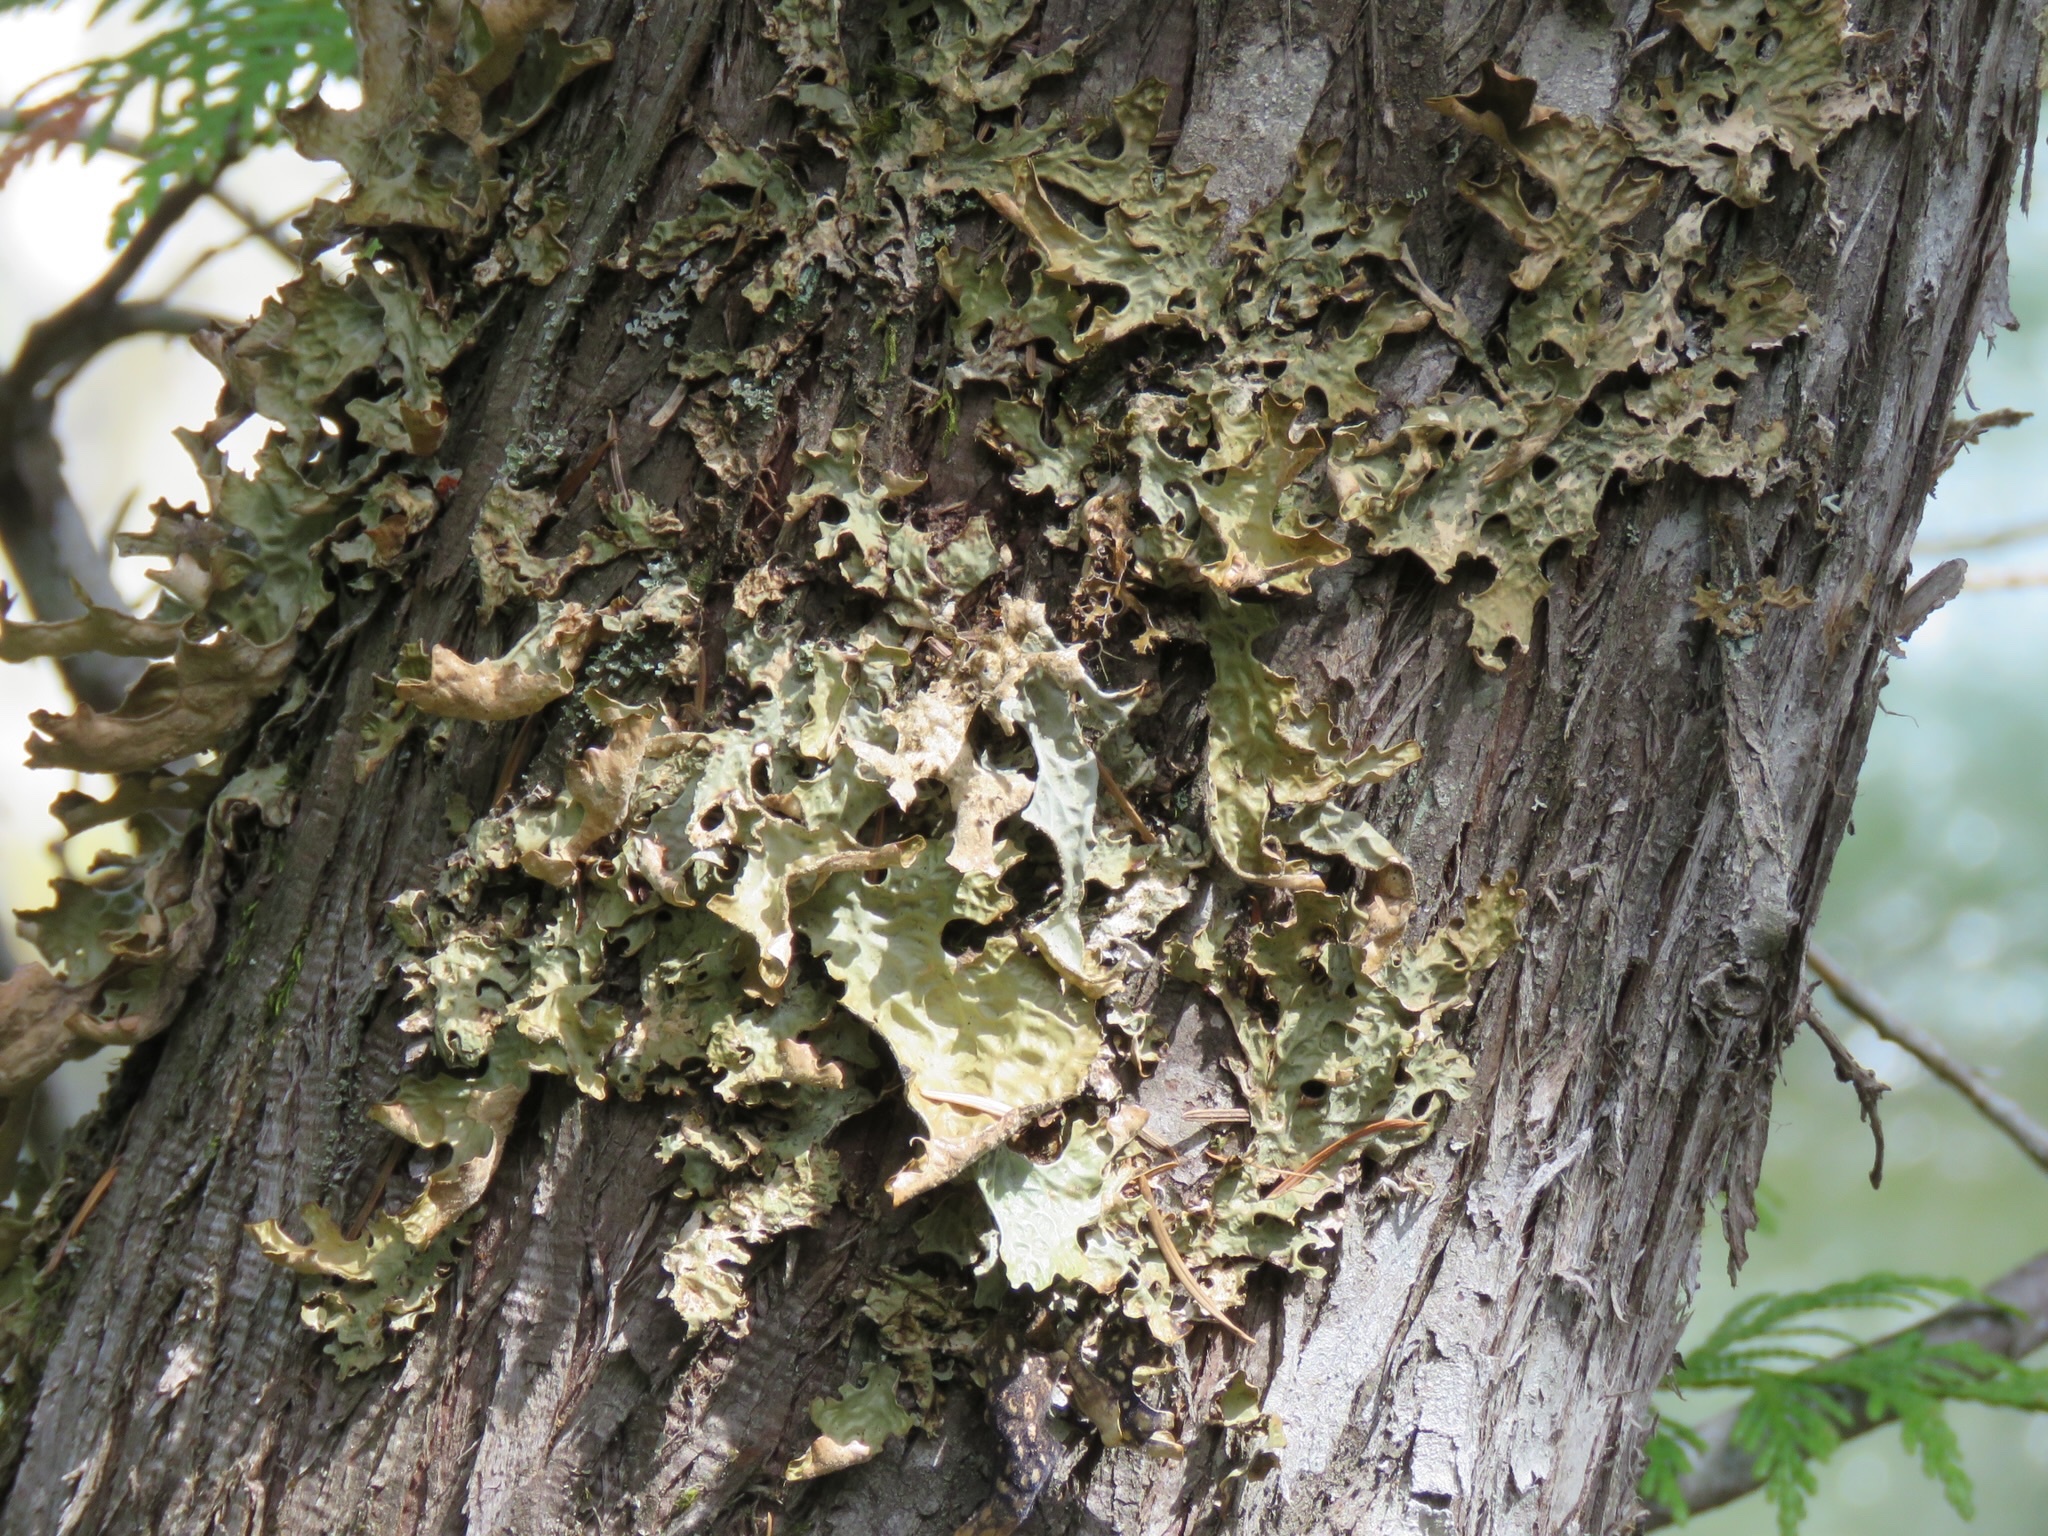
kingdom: Fungi
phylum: Ascomycota
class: Lecanoromycetes
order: Peltigerales
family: Lobariaceae
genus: Lobaria
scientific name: Lobaria pulmonaria
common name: Lungwort
